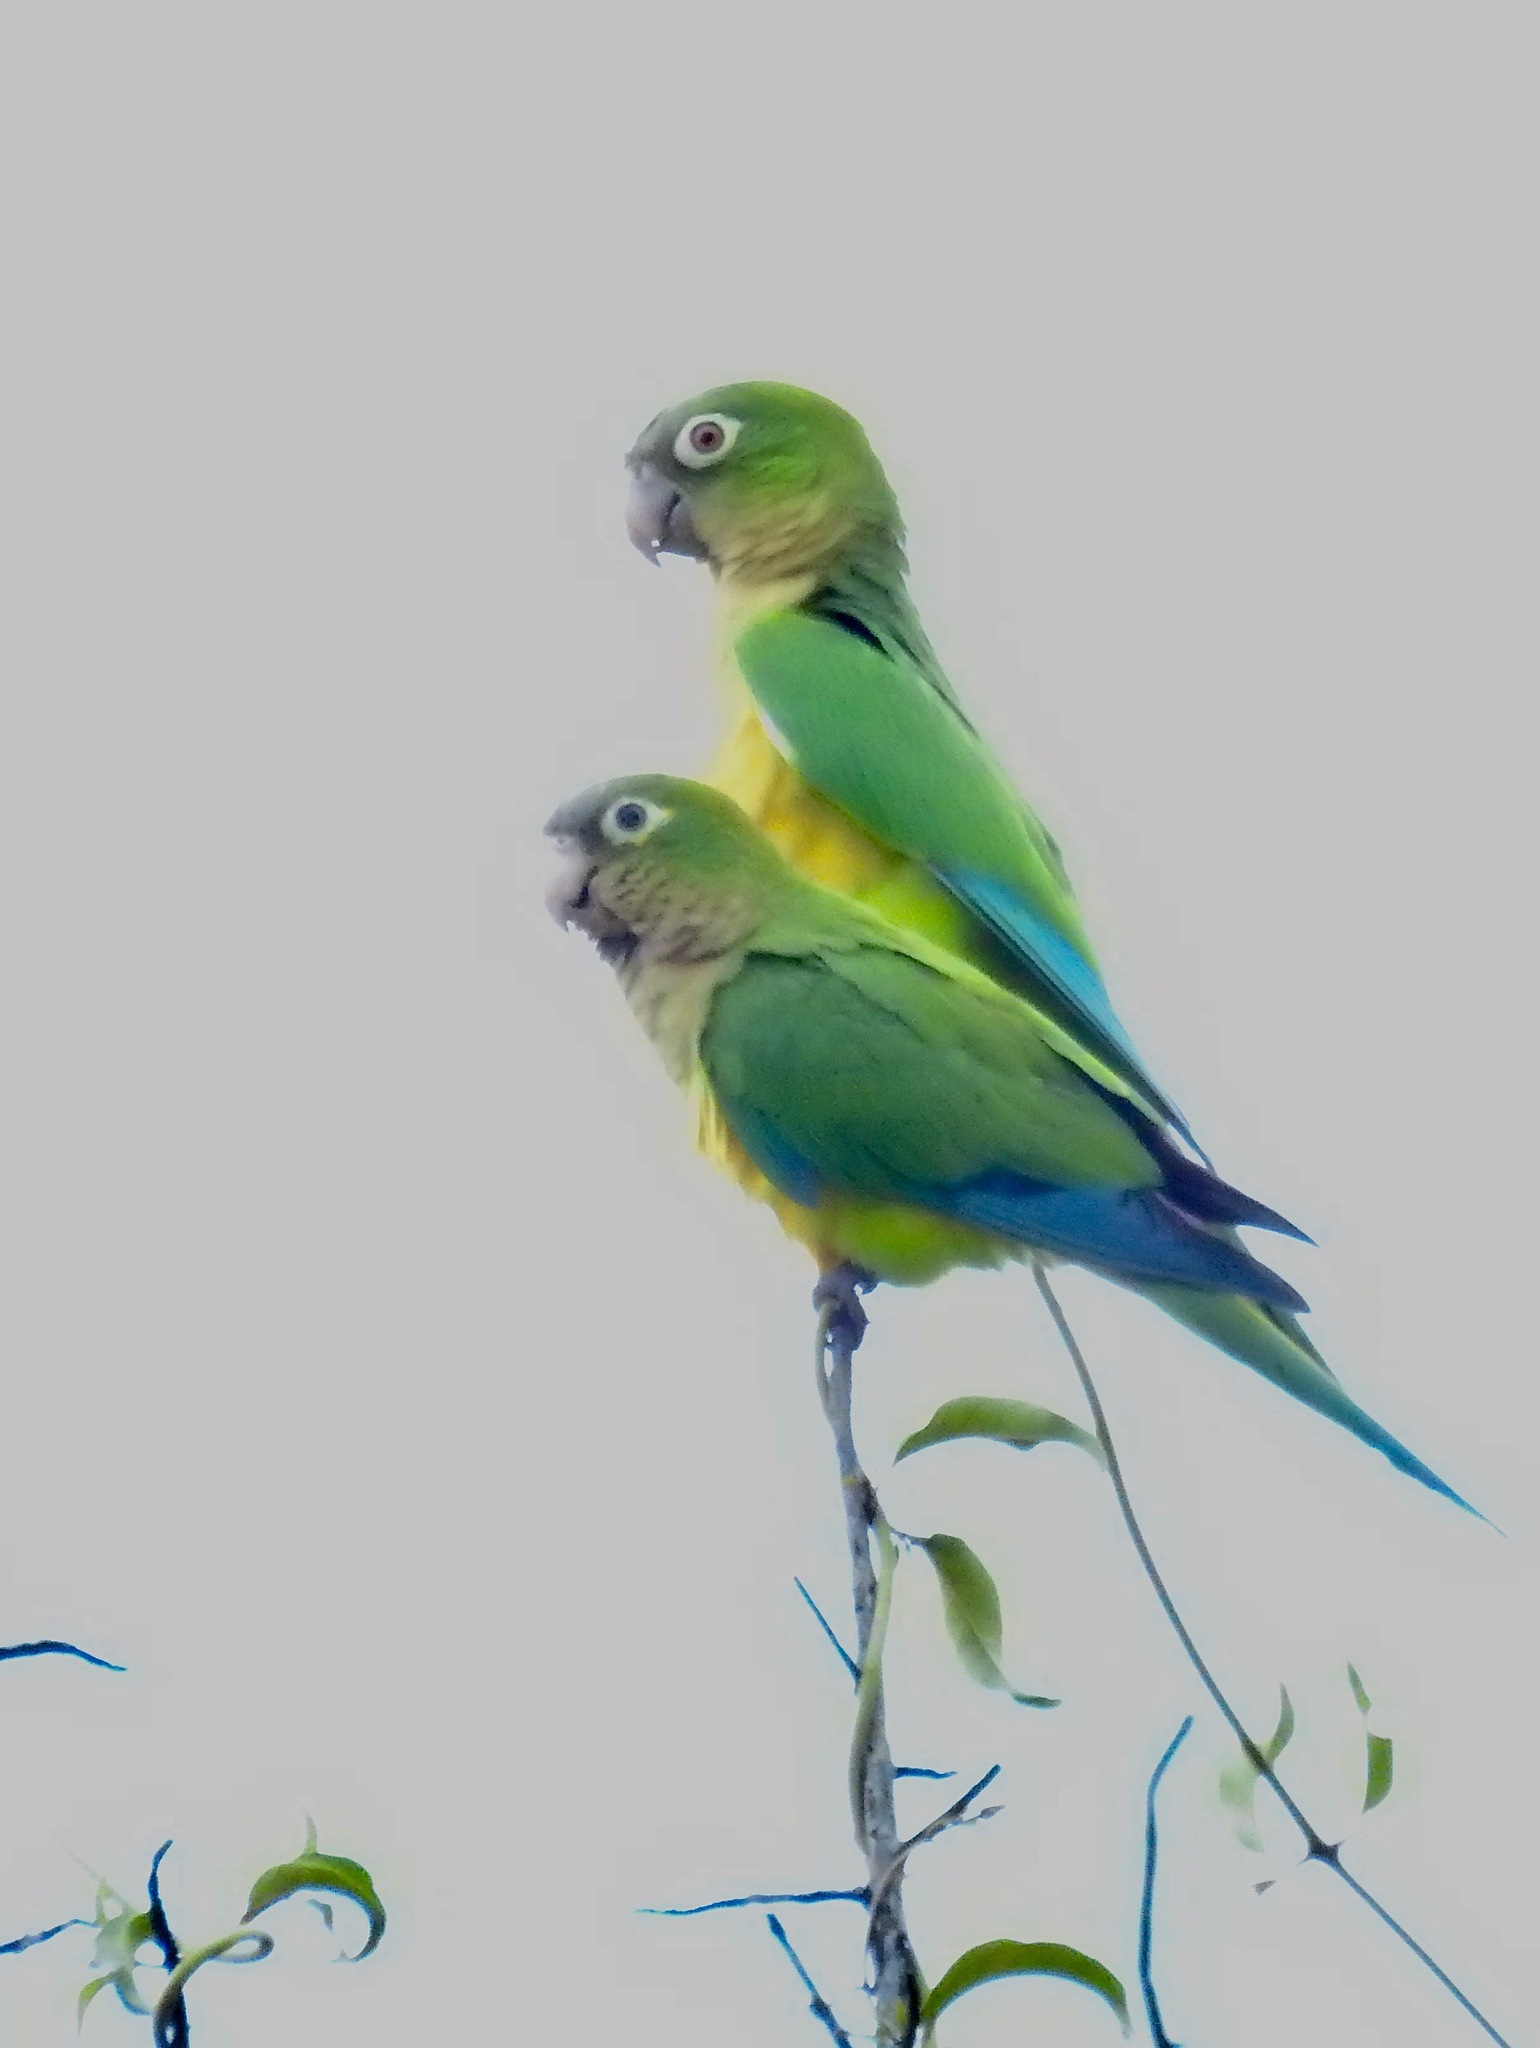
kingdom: Animalia
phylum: Chordata
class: Aves
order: Psittaciformes
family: Psittacidae
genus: Aratinga
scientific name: Aratinga cactorum
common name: Caatinga parakeet
